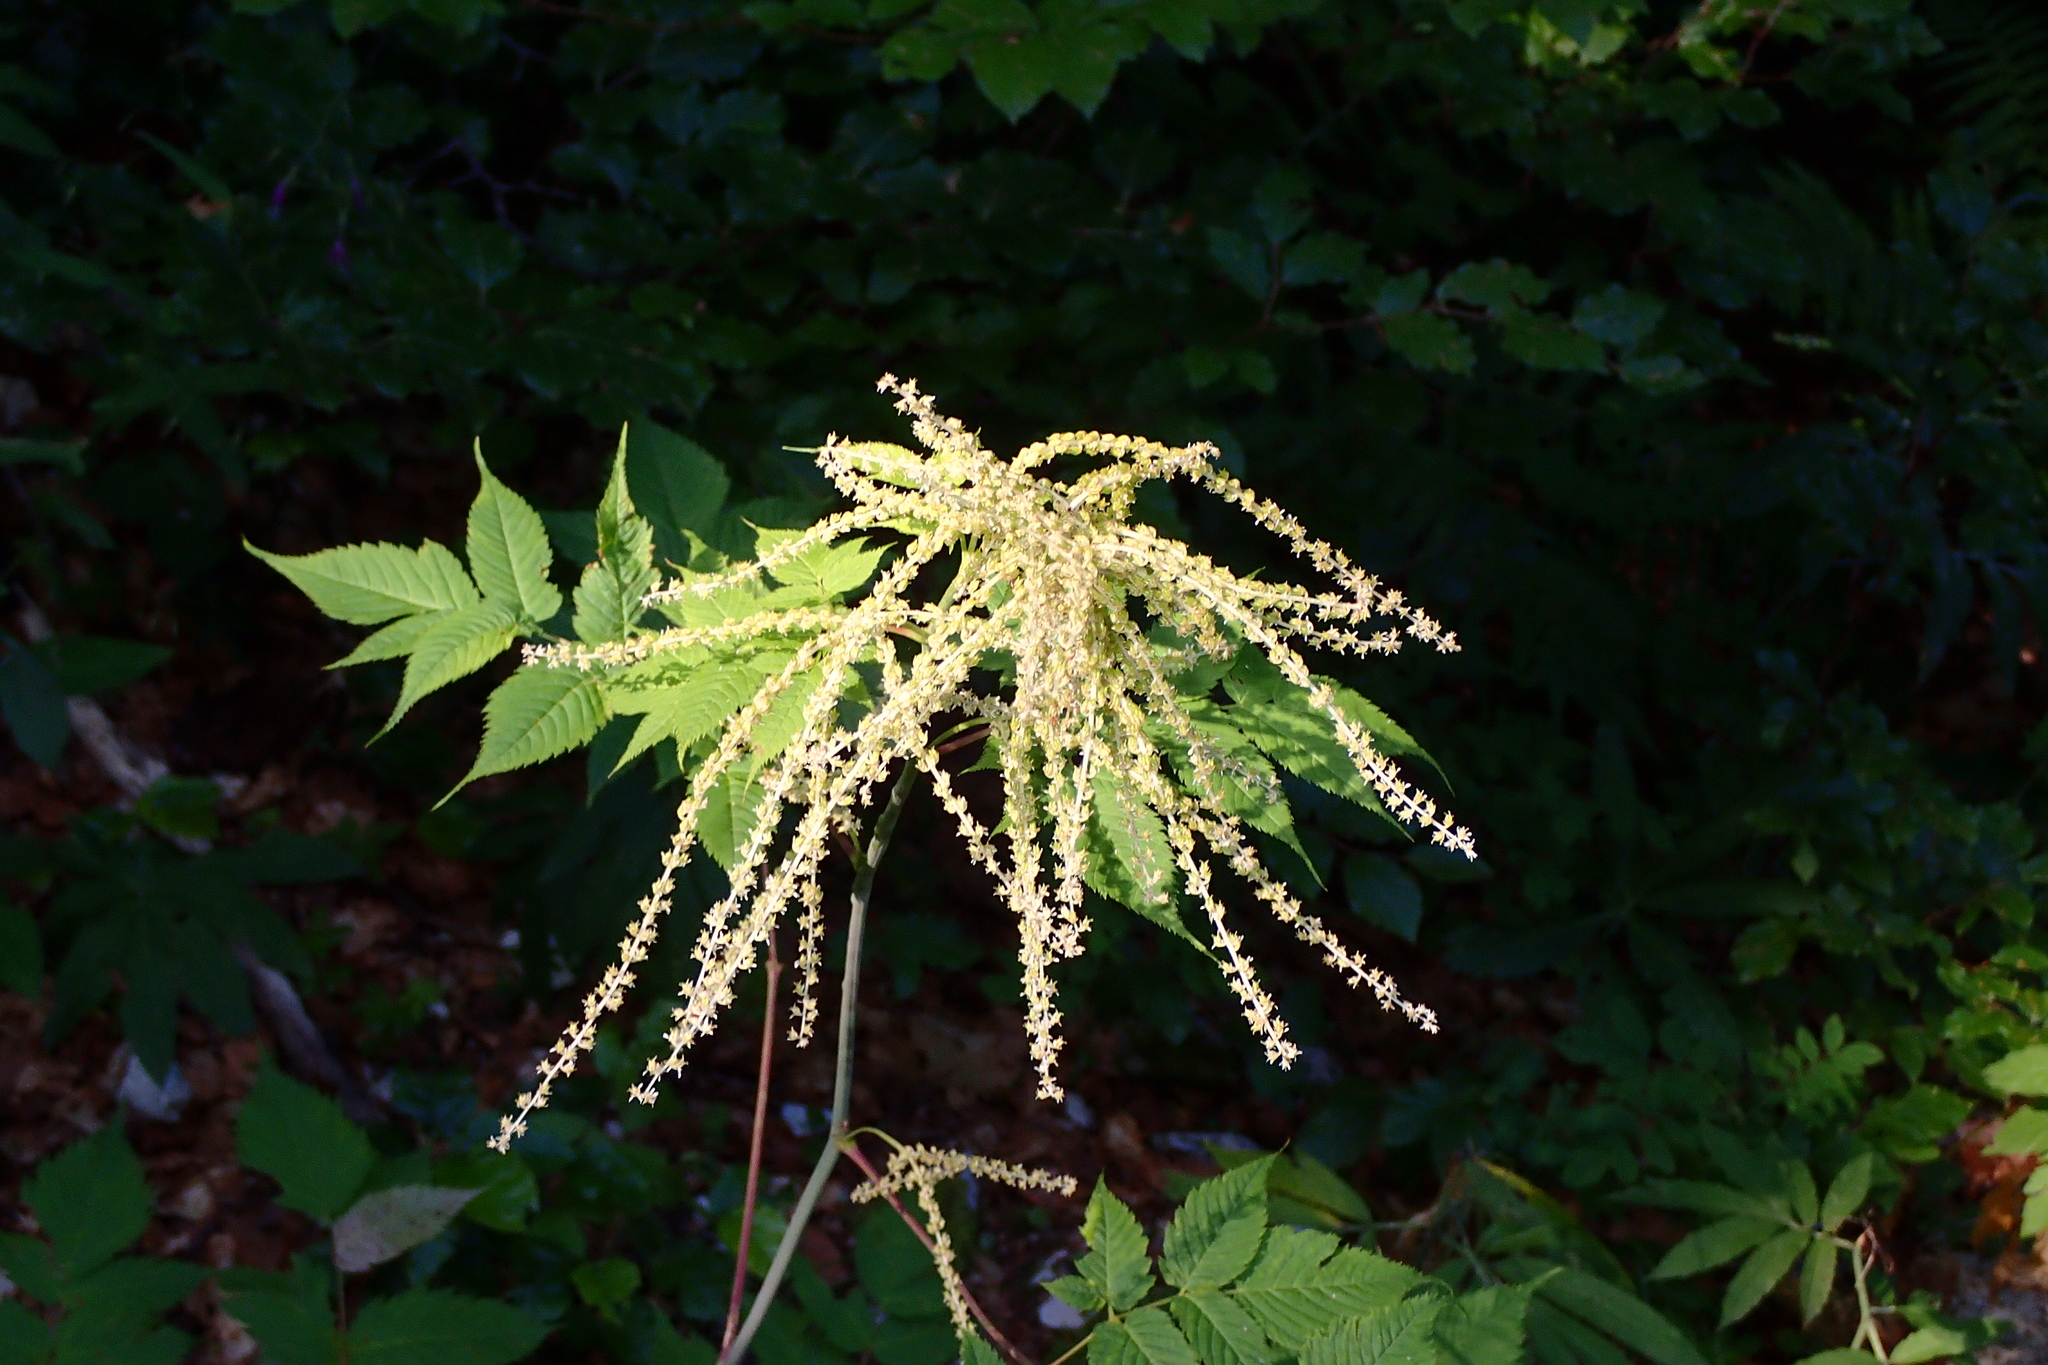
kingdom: Plantae
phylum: Tracheophyta
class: Magnoliopsida
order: Rosales
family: Rosaceae
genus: Aruncus
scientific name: Aruncus dioicus
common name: Buck's-beard
